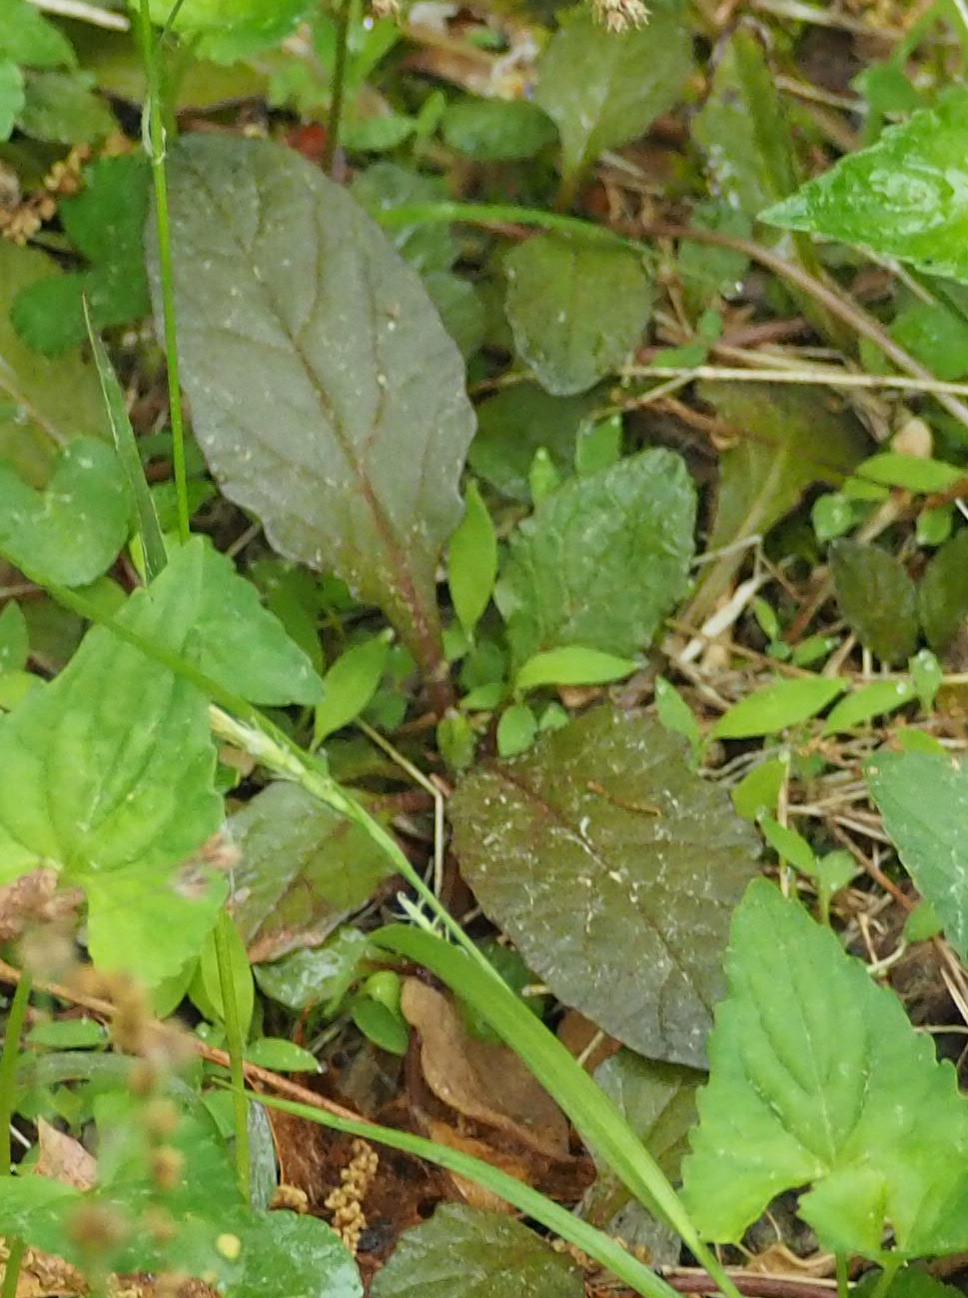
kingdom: Plantae
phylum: Tracheophyta
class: Magnoliopsida
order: Lamiales
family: Lamiaceae
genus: Ajuga
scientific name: Ajuga reptans
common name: Bugle
